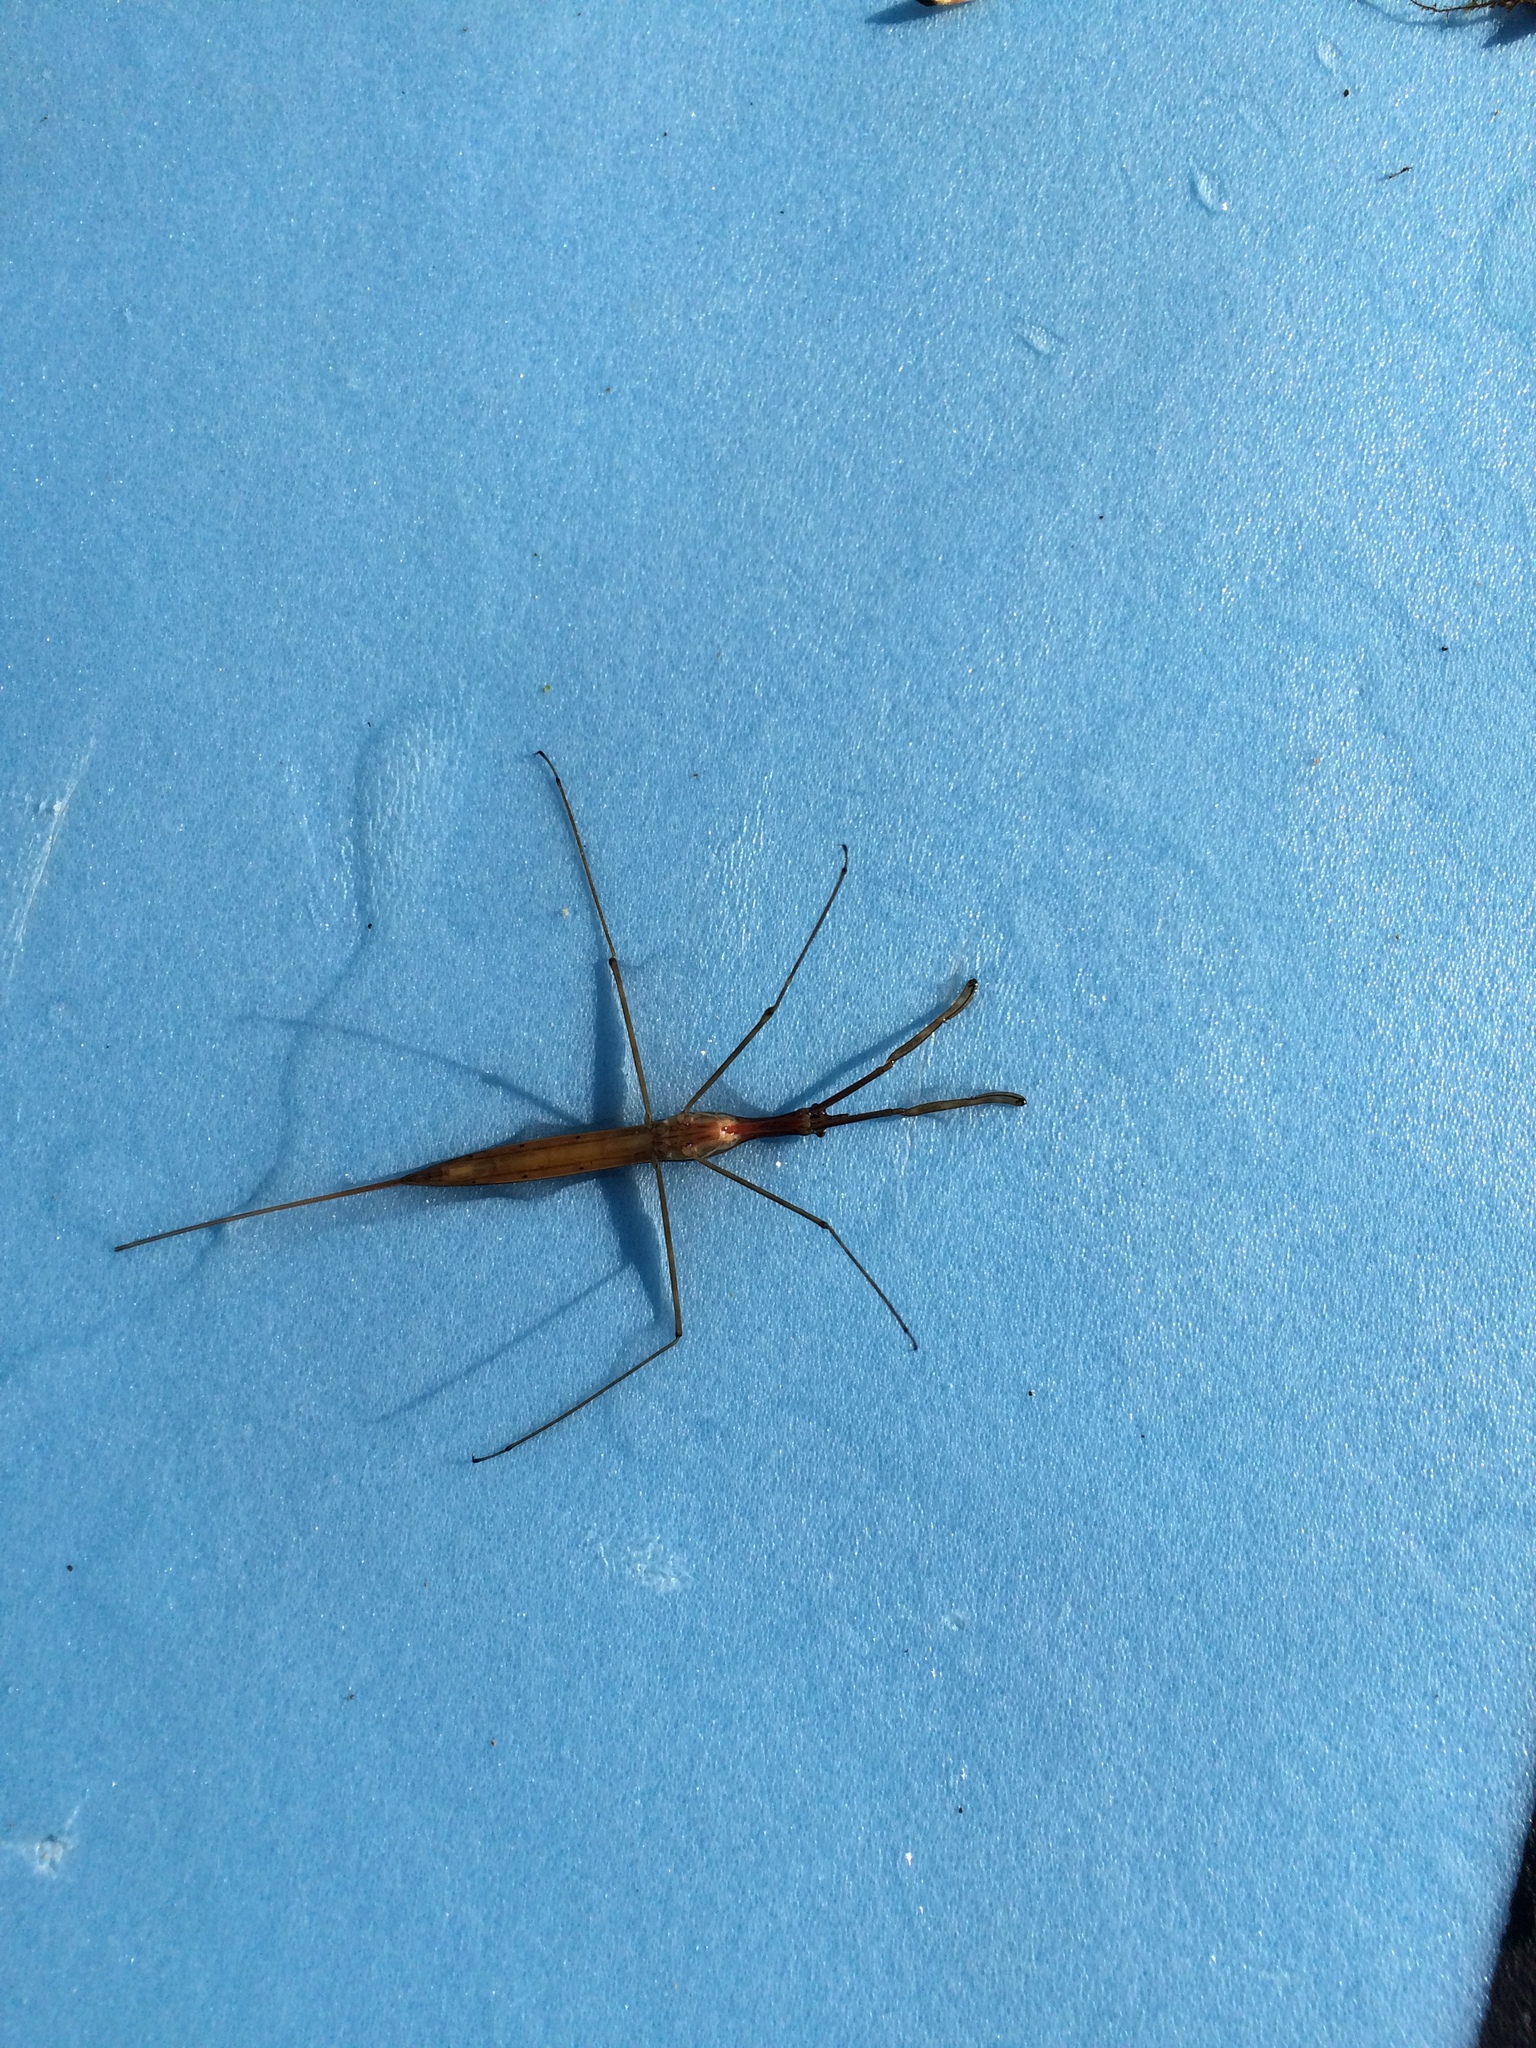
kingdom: Animalia
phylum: Arthropoda
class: Insecta
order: Hemiptera
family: Nepidae
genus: Ranatra
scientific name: Ranatra fusca
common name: Brown waterscorpion
